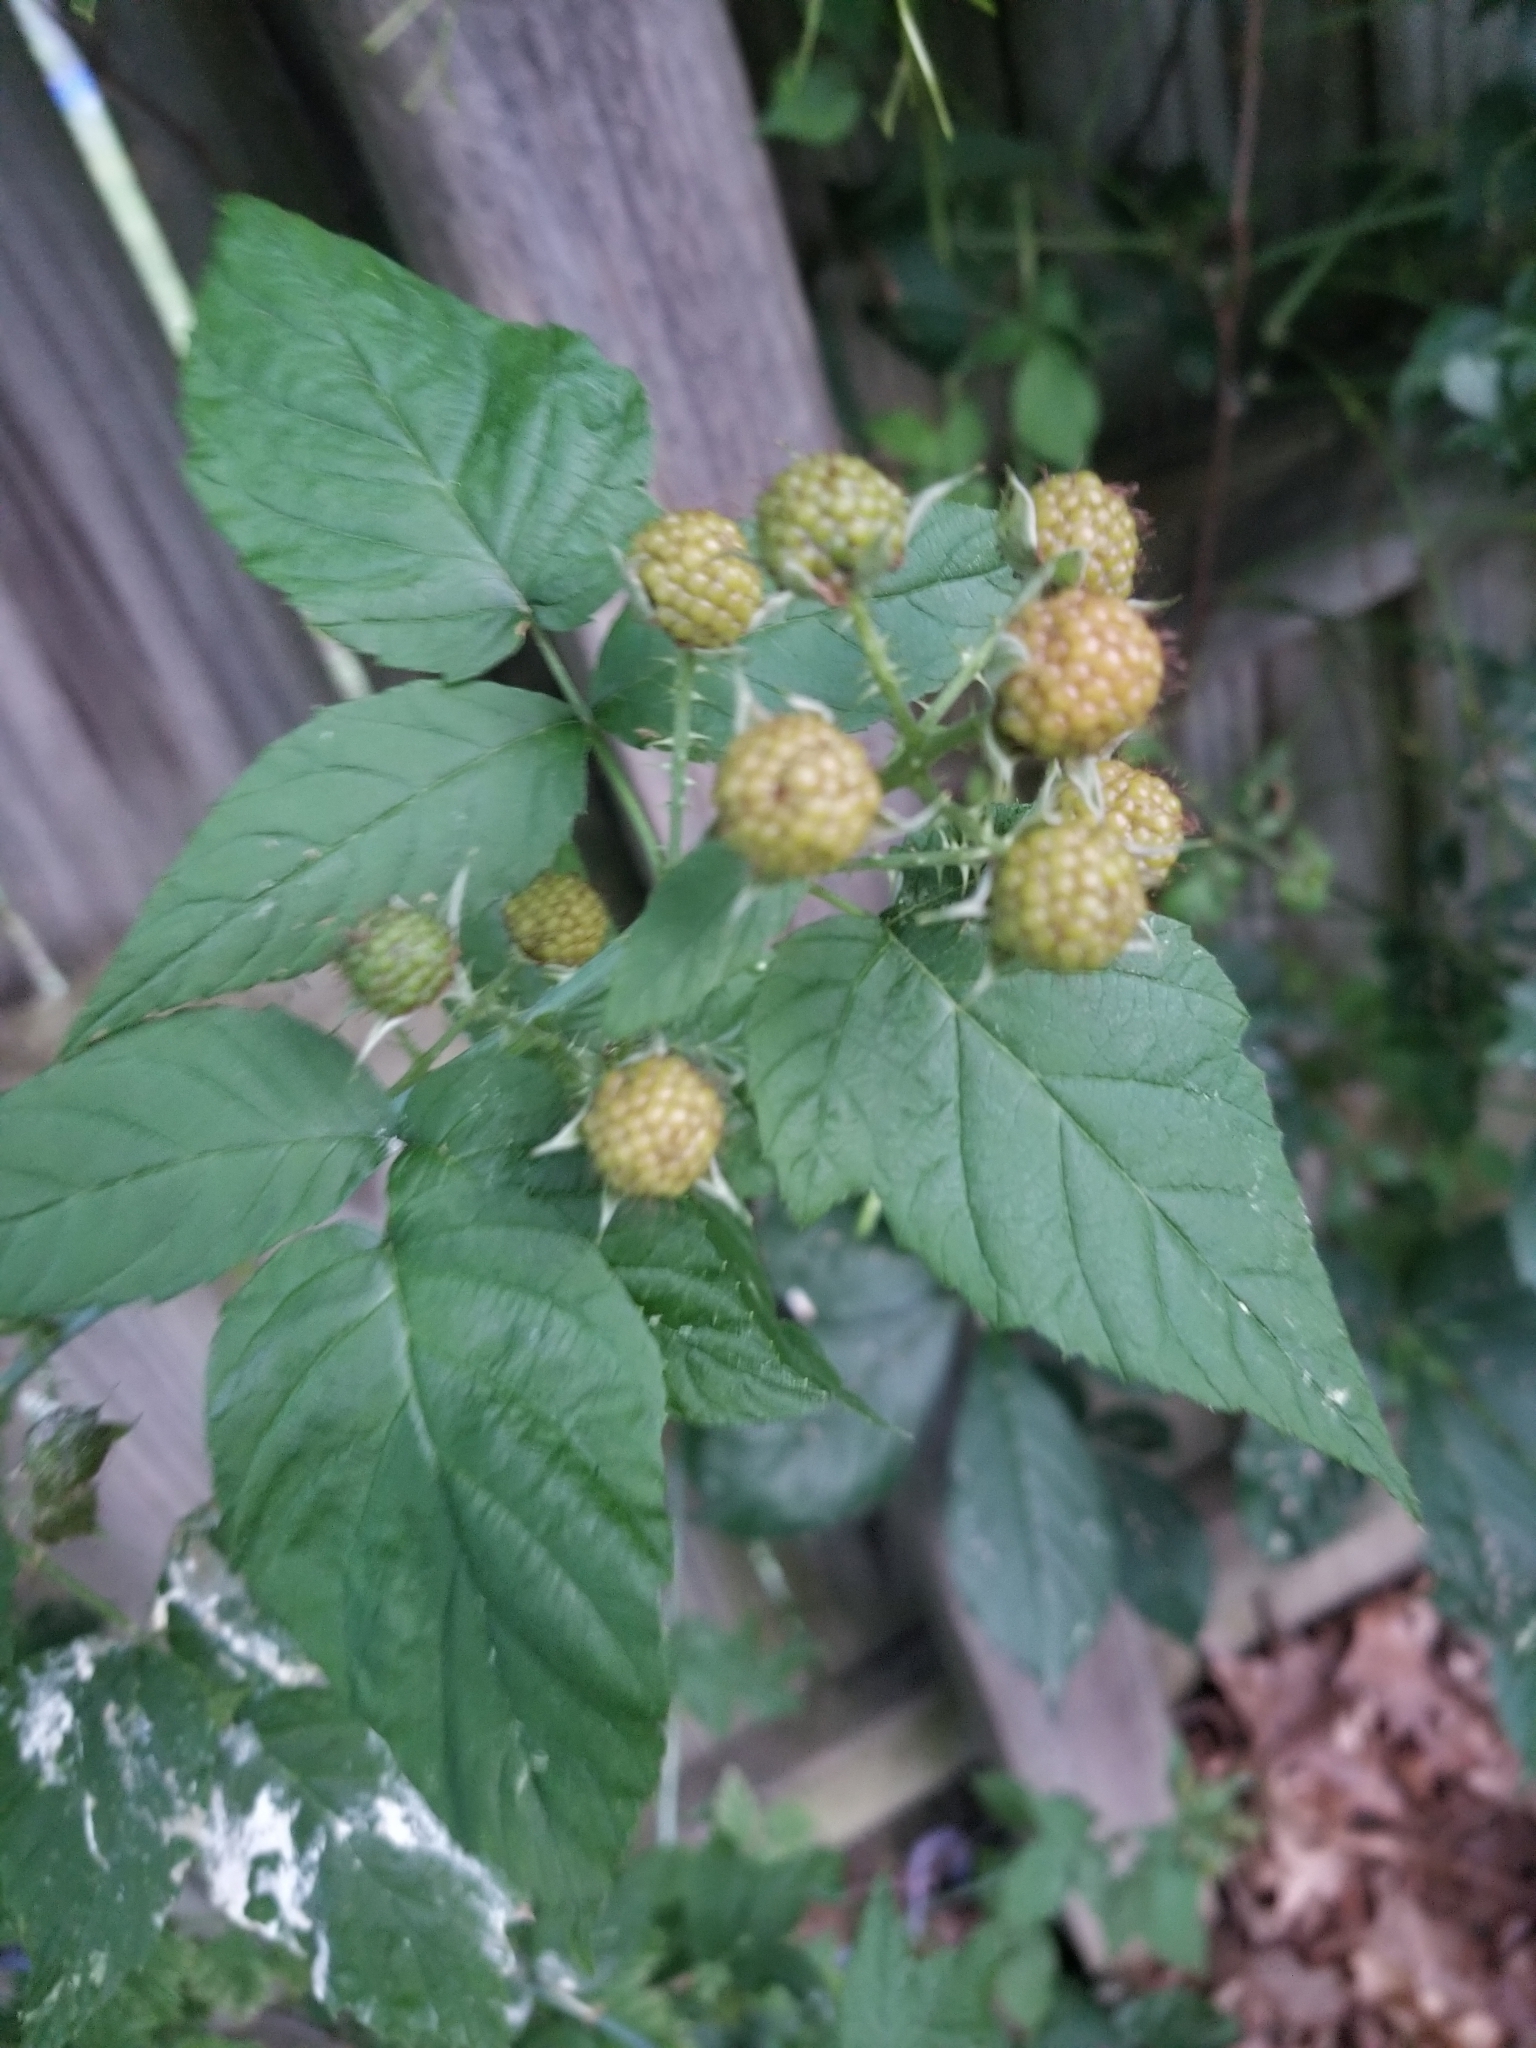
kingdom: Plantae
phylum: Tracheophyta
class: Magnoliopsida
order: Rosales
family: Rosaceae
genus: Rubus
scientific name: Rubus occidentalis
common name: Black raspberry
